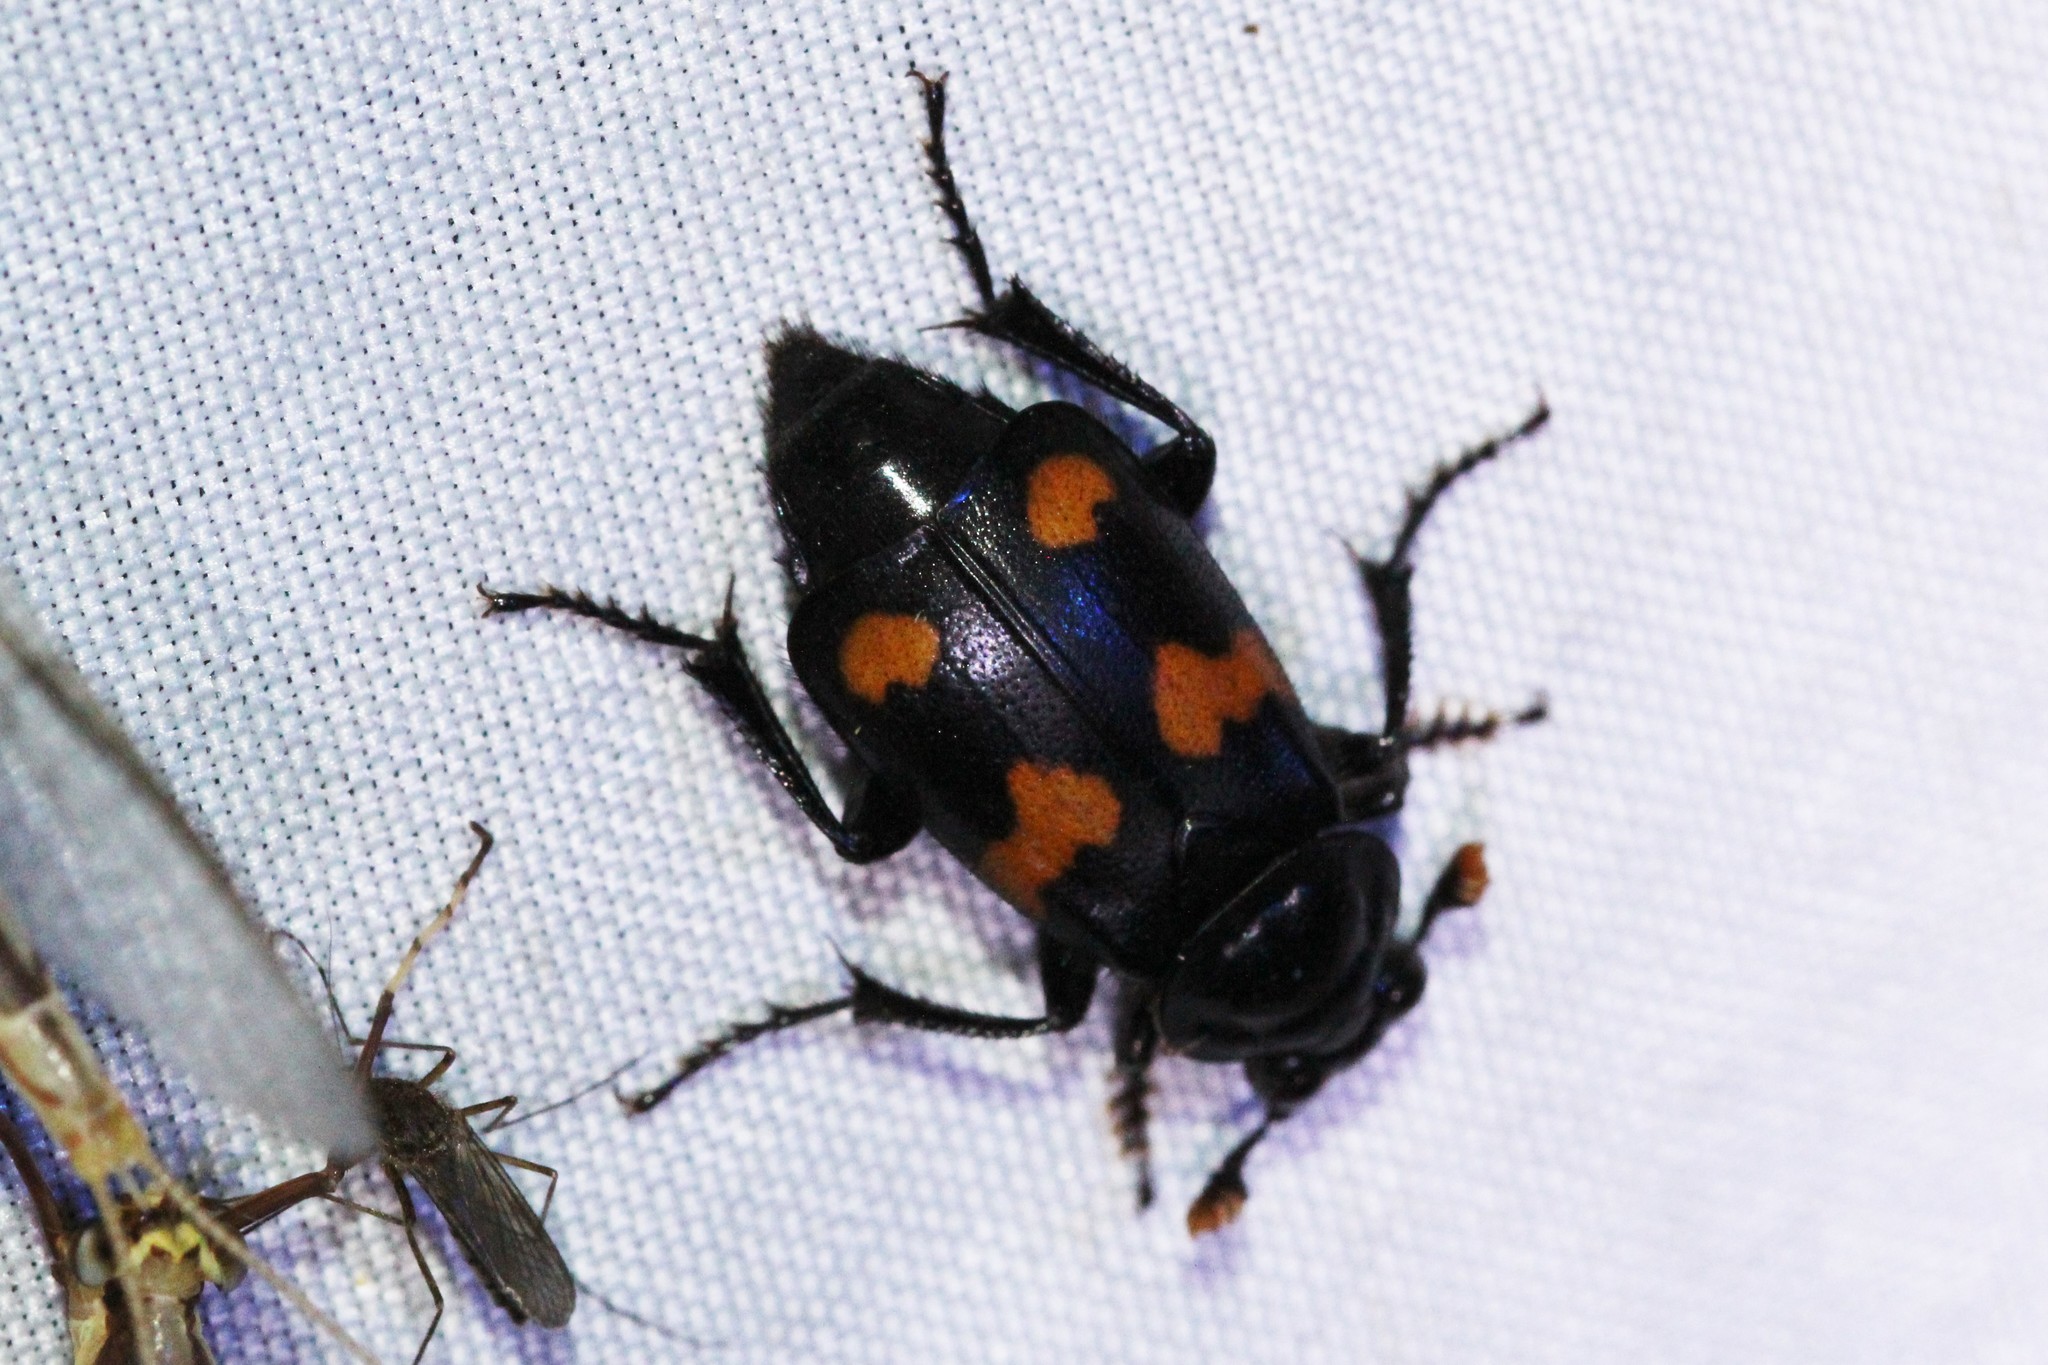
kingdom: Animalia
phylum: Arthropoda
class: Insecta
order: Coleoptera
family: Staphylinidae
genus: Nicrophorus
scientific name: Nicrophorus orbicollis
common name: Roundneck sexton beetle
